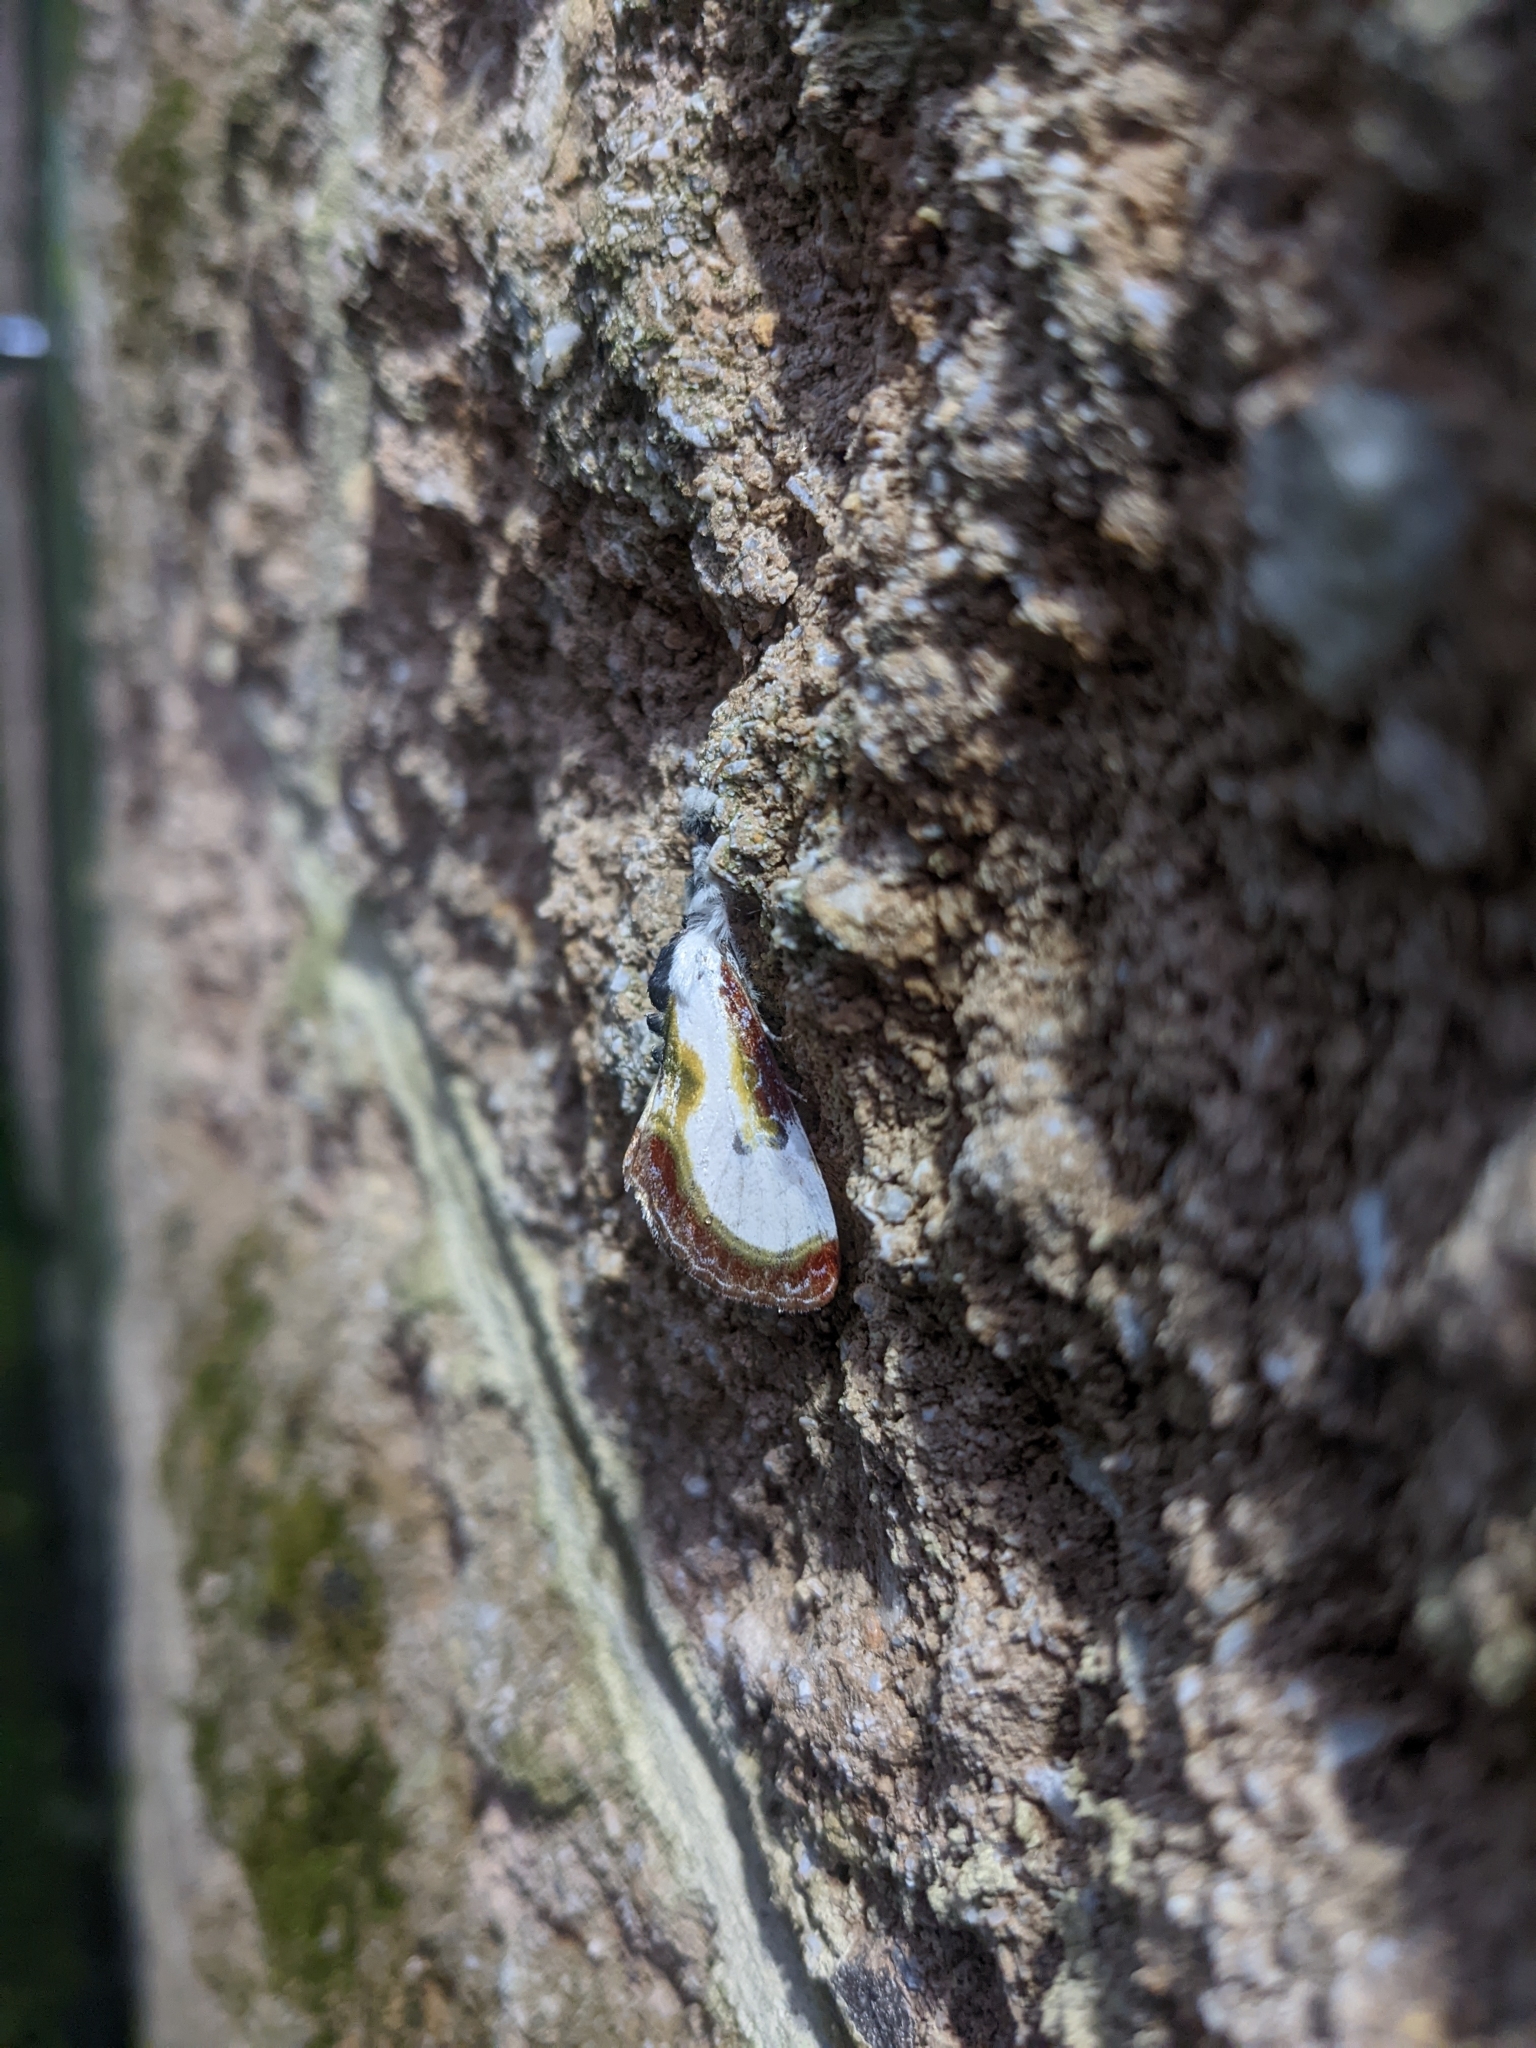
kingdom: Animalia
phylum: Arthropoda
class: Insecta
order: Lepidoptera
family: Noctuidae
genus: Eudryas
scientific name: Eudryas grata
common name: Beautiful wood-nymph
